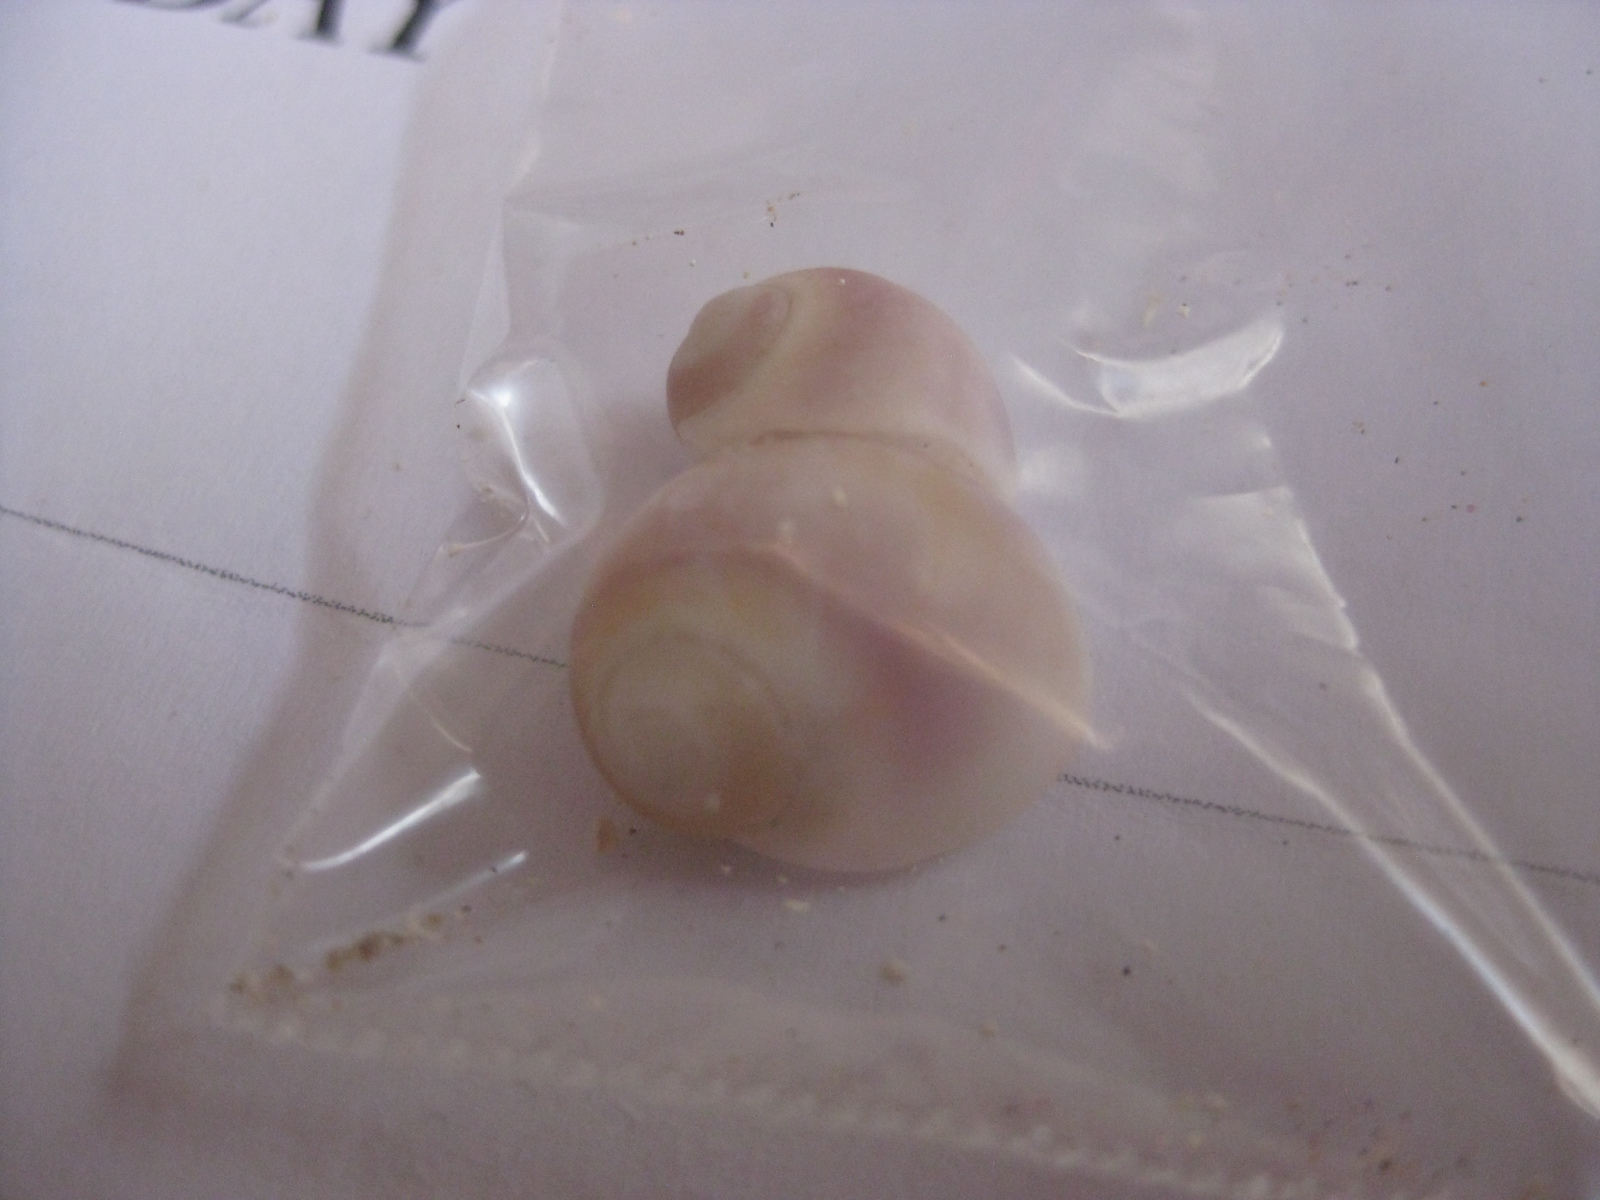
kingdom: Animalia
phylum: Mollusca
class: Gastropoda
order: Littorinimorpha
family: Naticidae
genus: Notocochlis
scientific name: Notocochlis gualteriana
